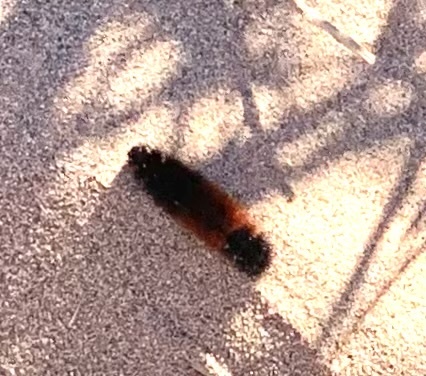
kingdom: Animalia
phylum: Arthropoda
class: Insecta
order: Lepidoptera
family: Erebidae
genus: Pyrrharctia
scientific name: Pyrrharctia isabella
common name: Isabella tiger moth
